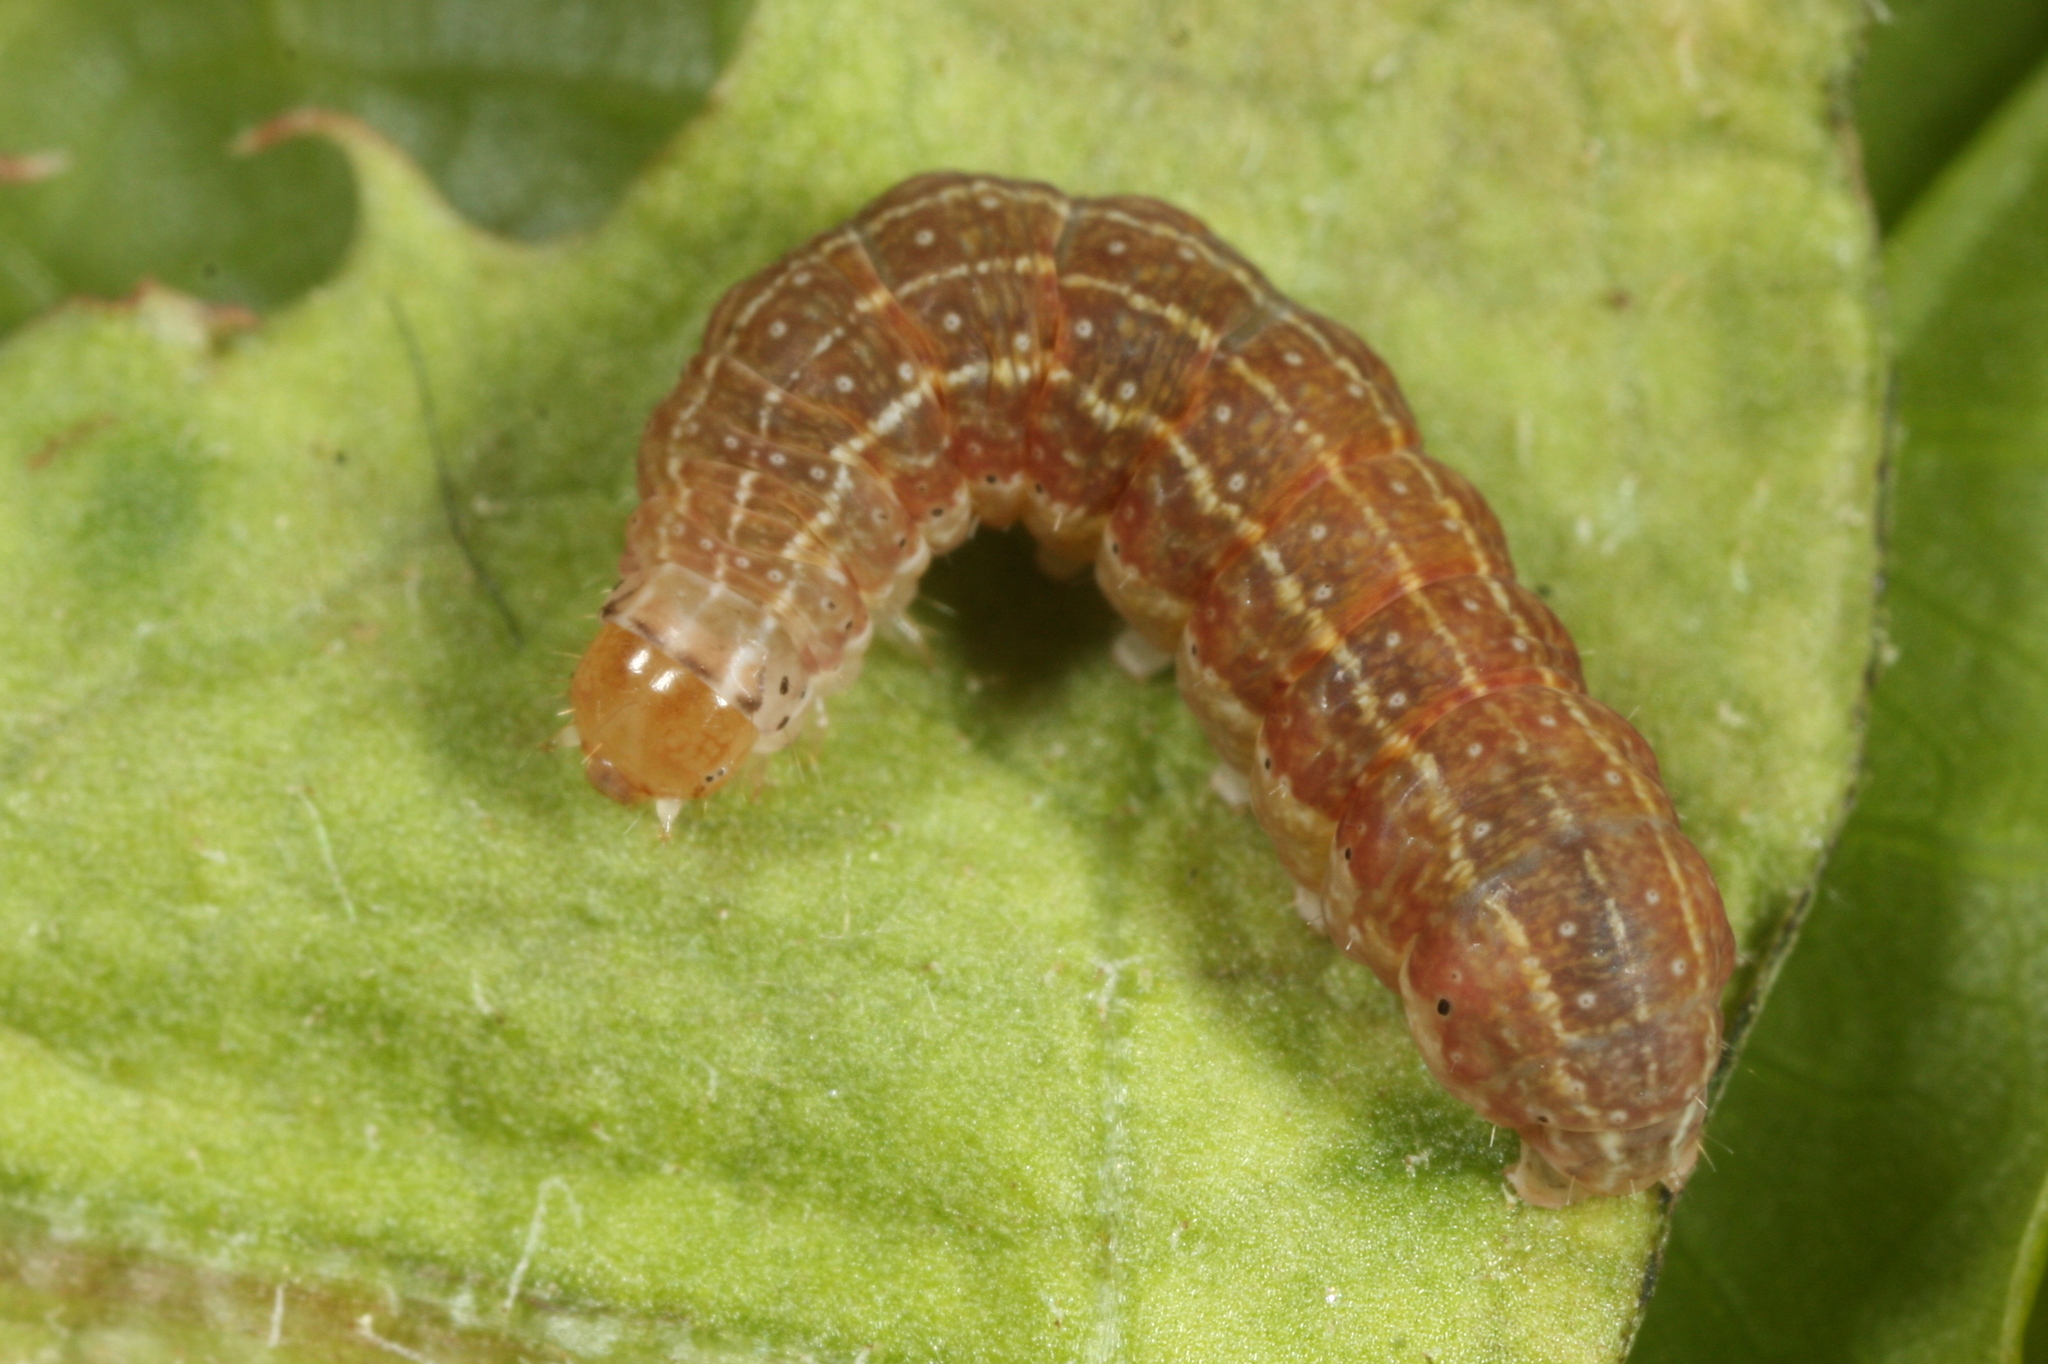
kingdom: Animalia
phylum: Arthropoda
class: Insecta
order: Lepidoptera
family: Noctuidae
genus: Agrochola
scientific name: Agrochola helvola
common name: Flounced chestnut
